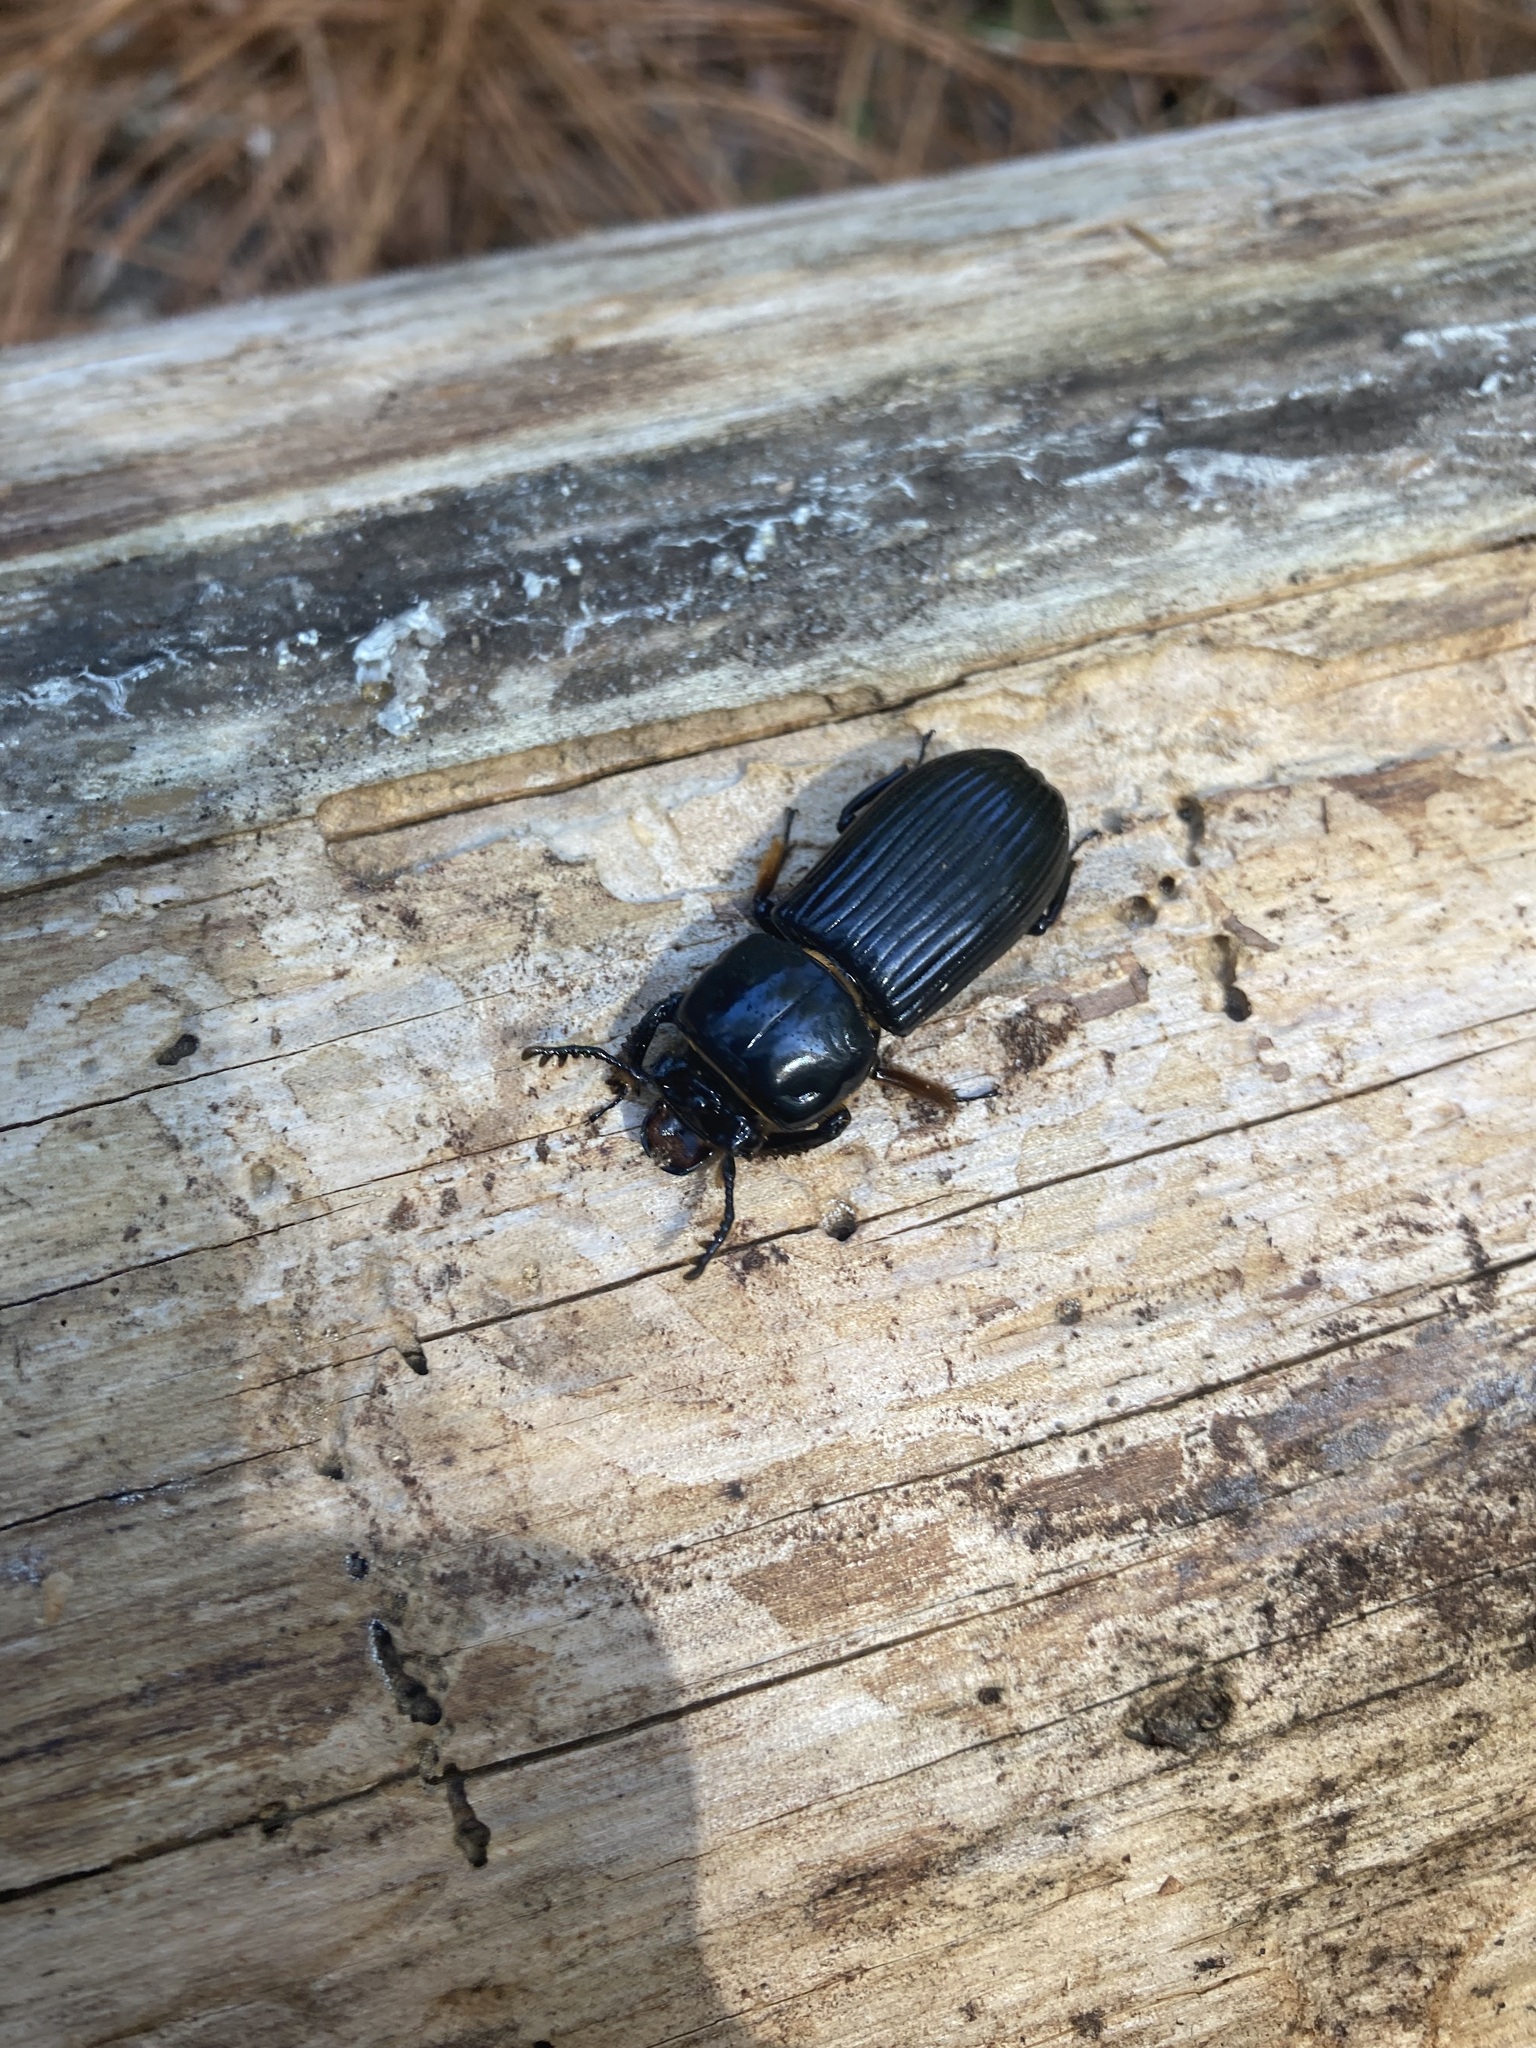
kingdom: Animalia
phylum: Arthropoda
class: Insecta
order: Coleoptera
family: Passalidae
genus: Odontotaenius
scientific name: Odontotaenius disjunctus
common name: Patent leather beetle
